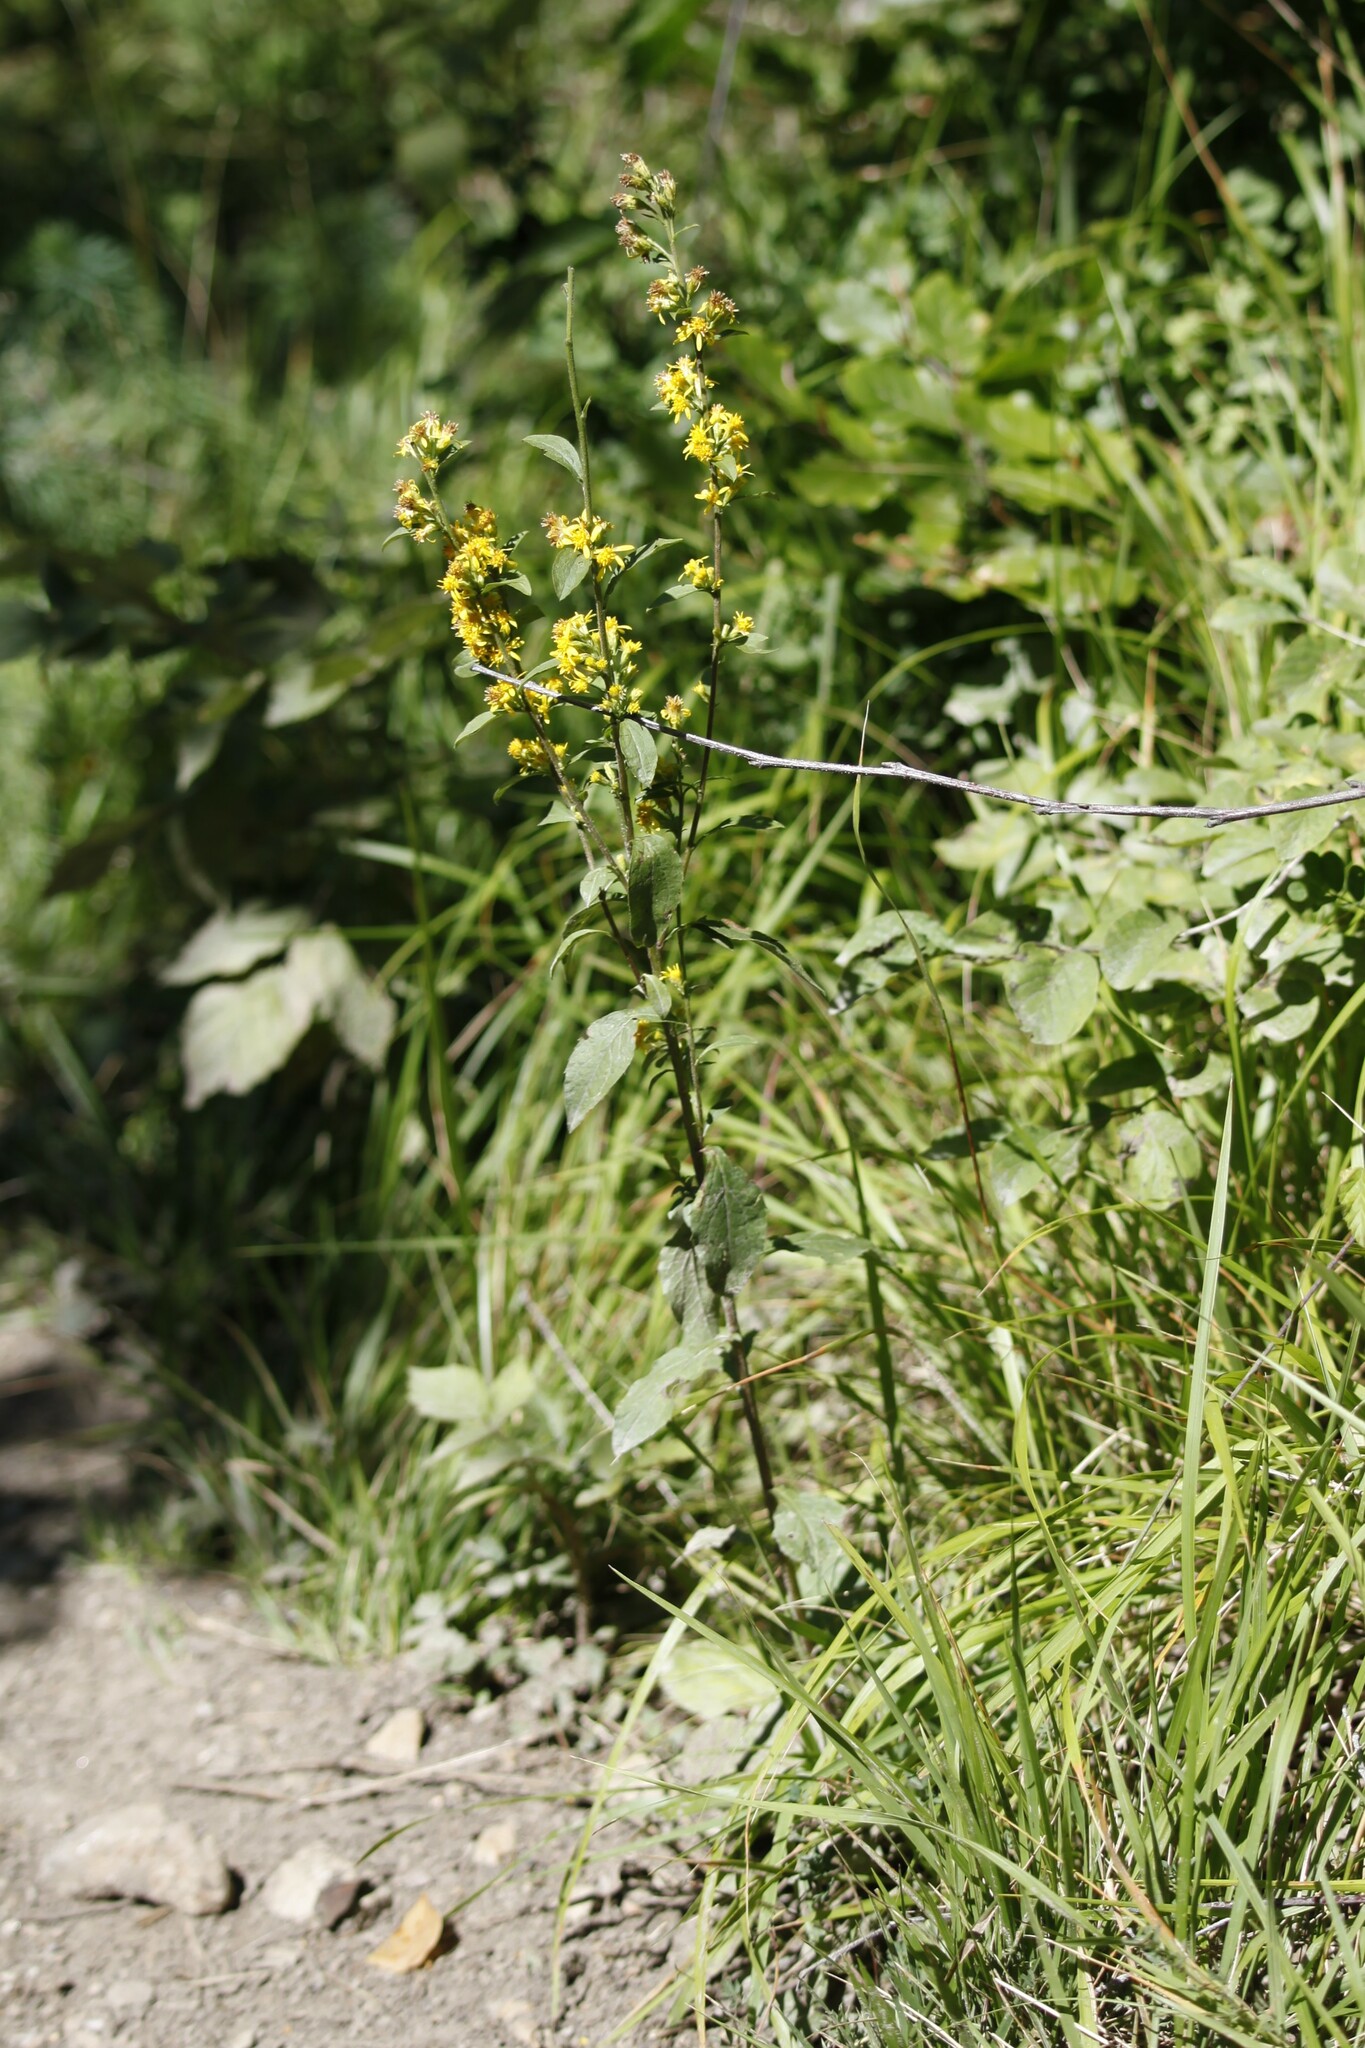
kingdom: Plantae
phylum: Tracheophyta
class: Magnoliopsida
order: Asterales
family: Asteraceae
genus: Solidago
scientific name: Solidago virgaurea
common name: Goldenrod
